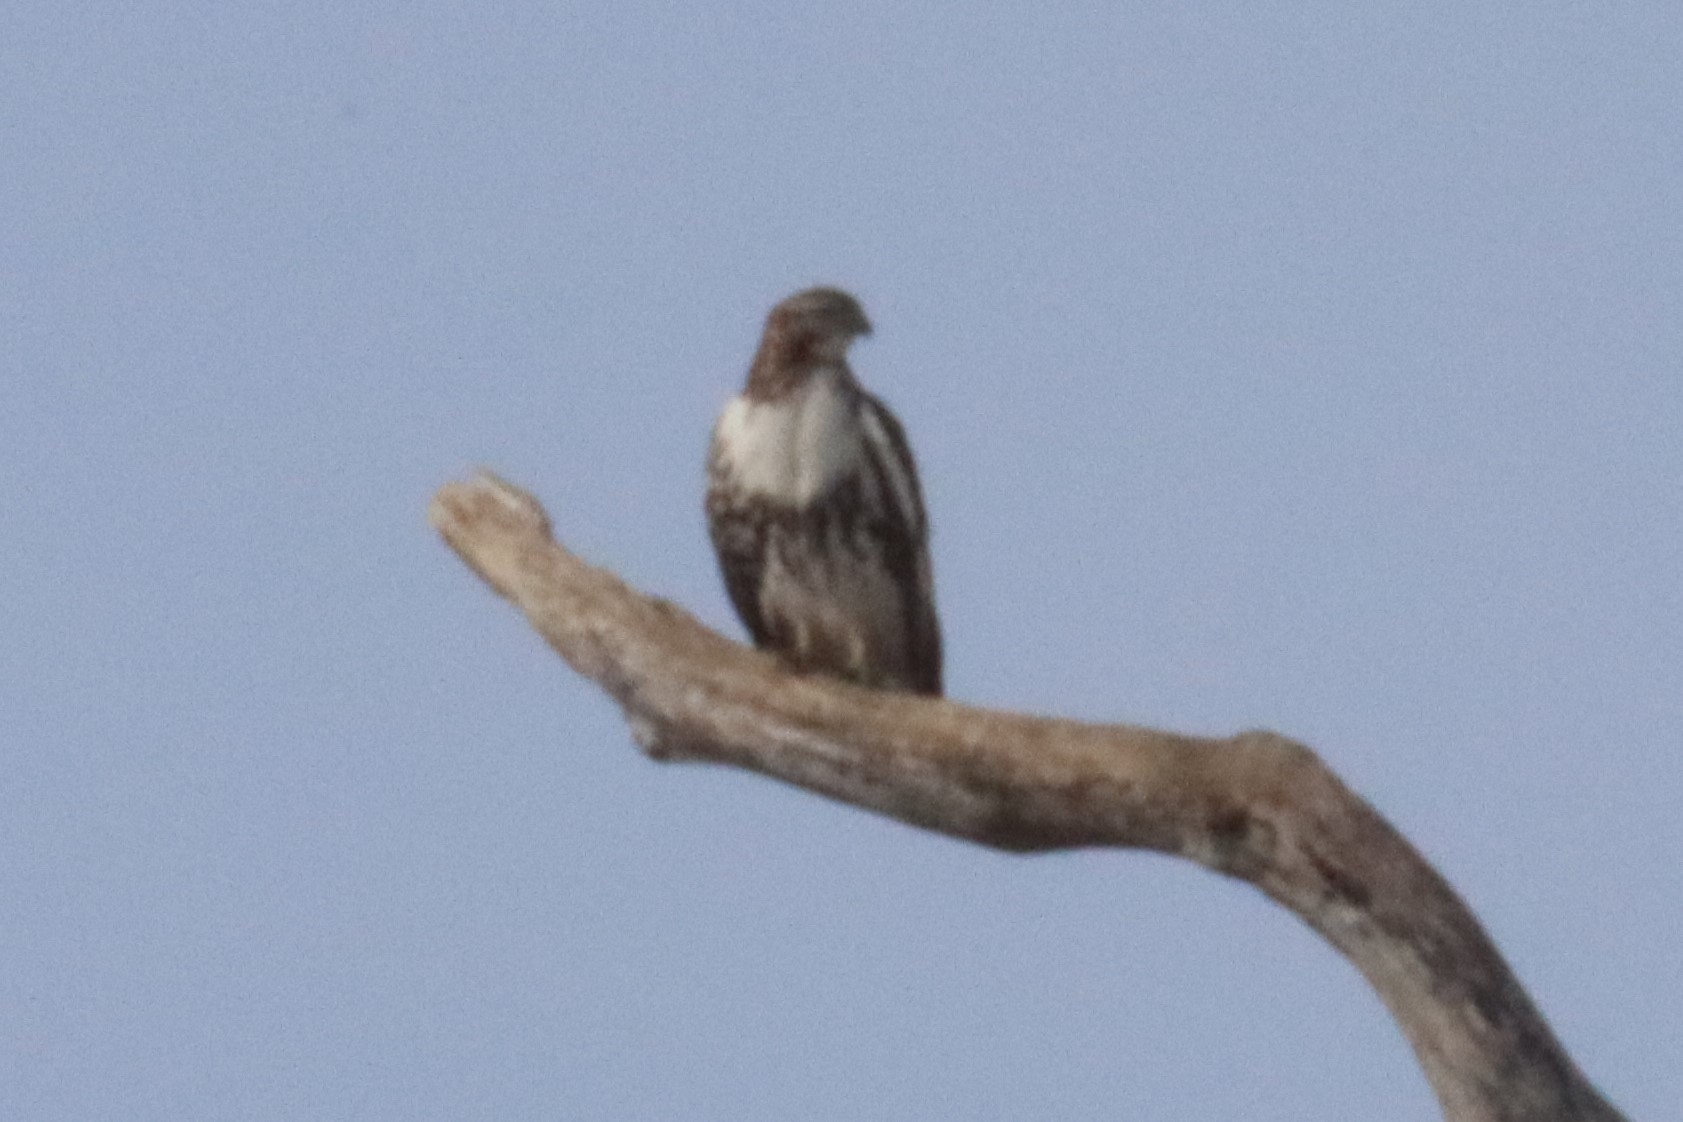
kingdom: Animalia
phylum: Chordata
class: Aves
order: Accipitriformes
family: Accipitridae
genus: Buteo
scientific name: Buteo jamaicensis
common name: Red-tailed hawk
